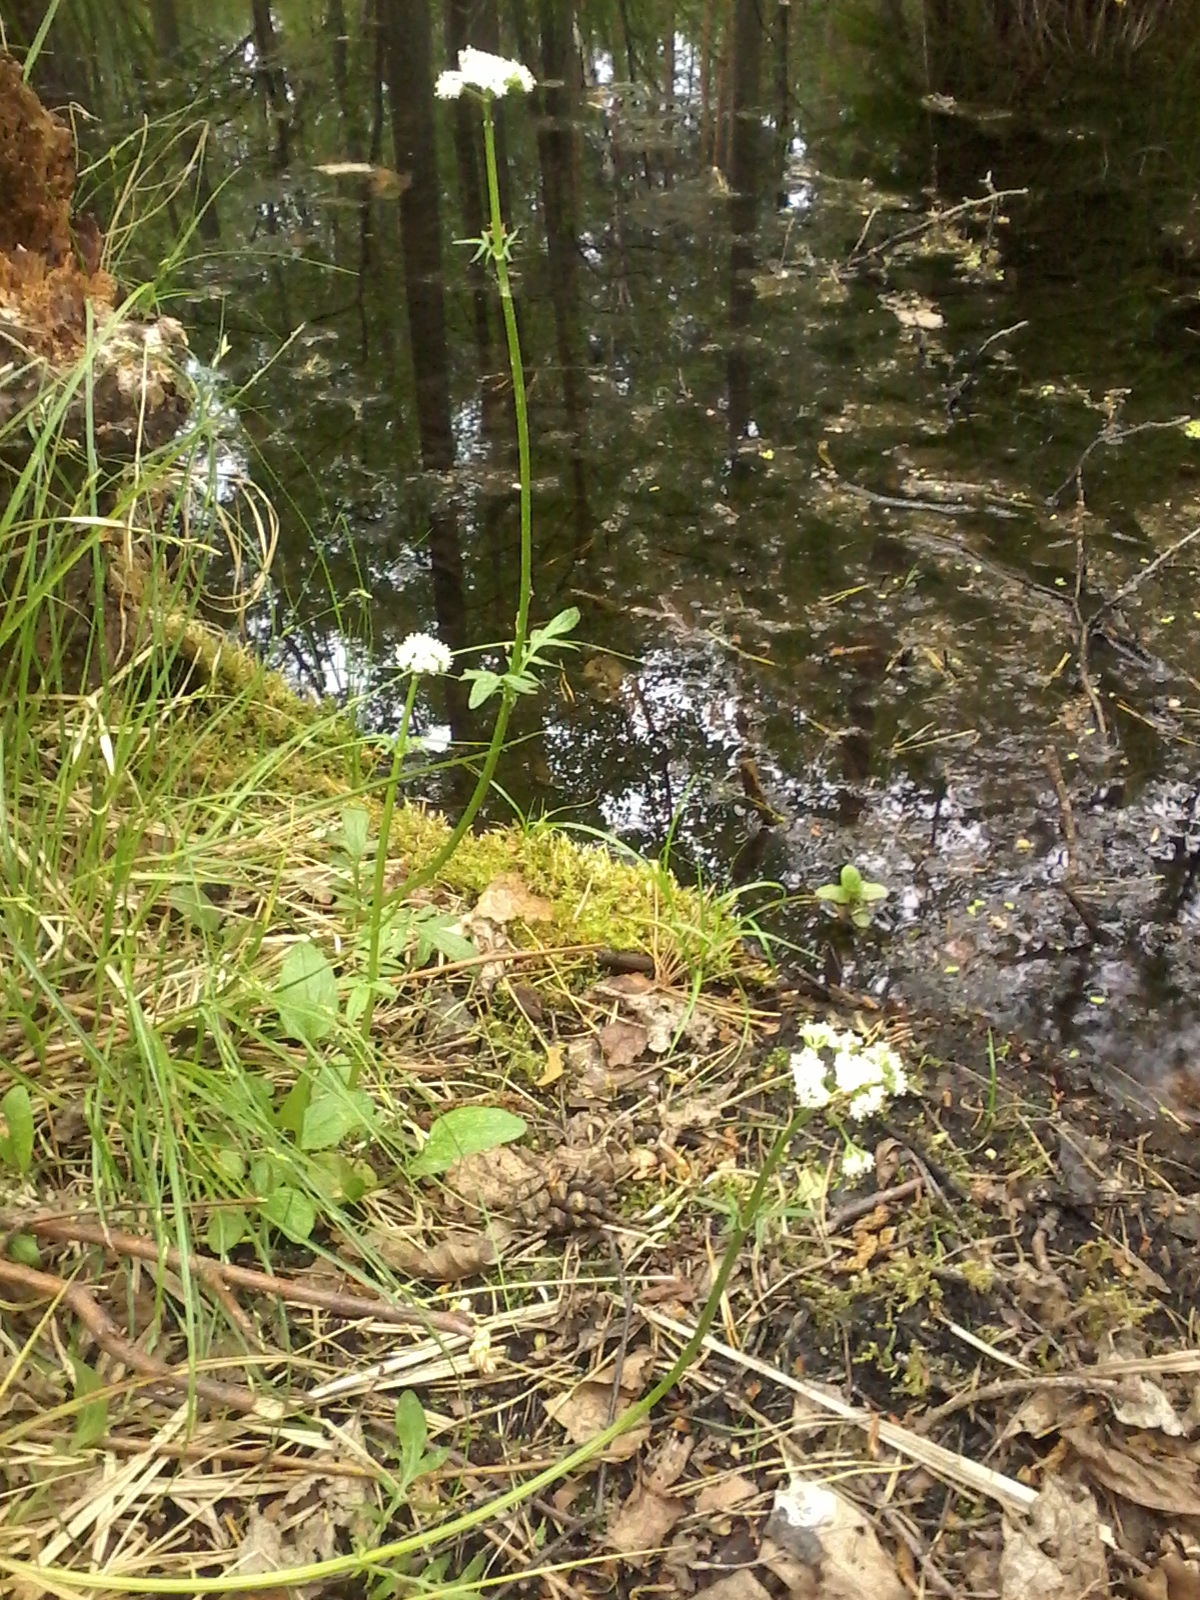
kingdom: Plantae
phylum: Tracheophyta
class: Magnoliopsida
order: Dipsacales
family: Caprifoliaceae
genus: Valeriana
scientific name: Valeriana dioica
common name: Marsh valerian
